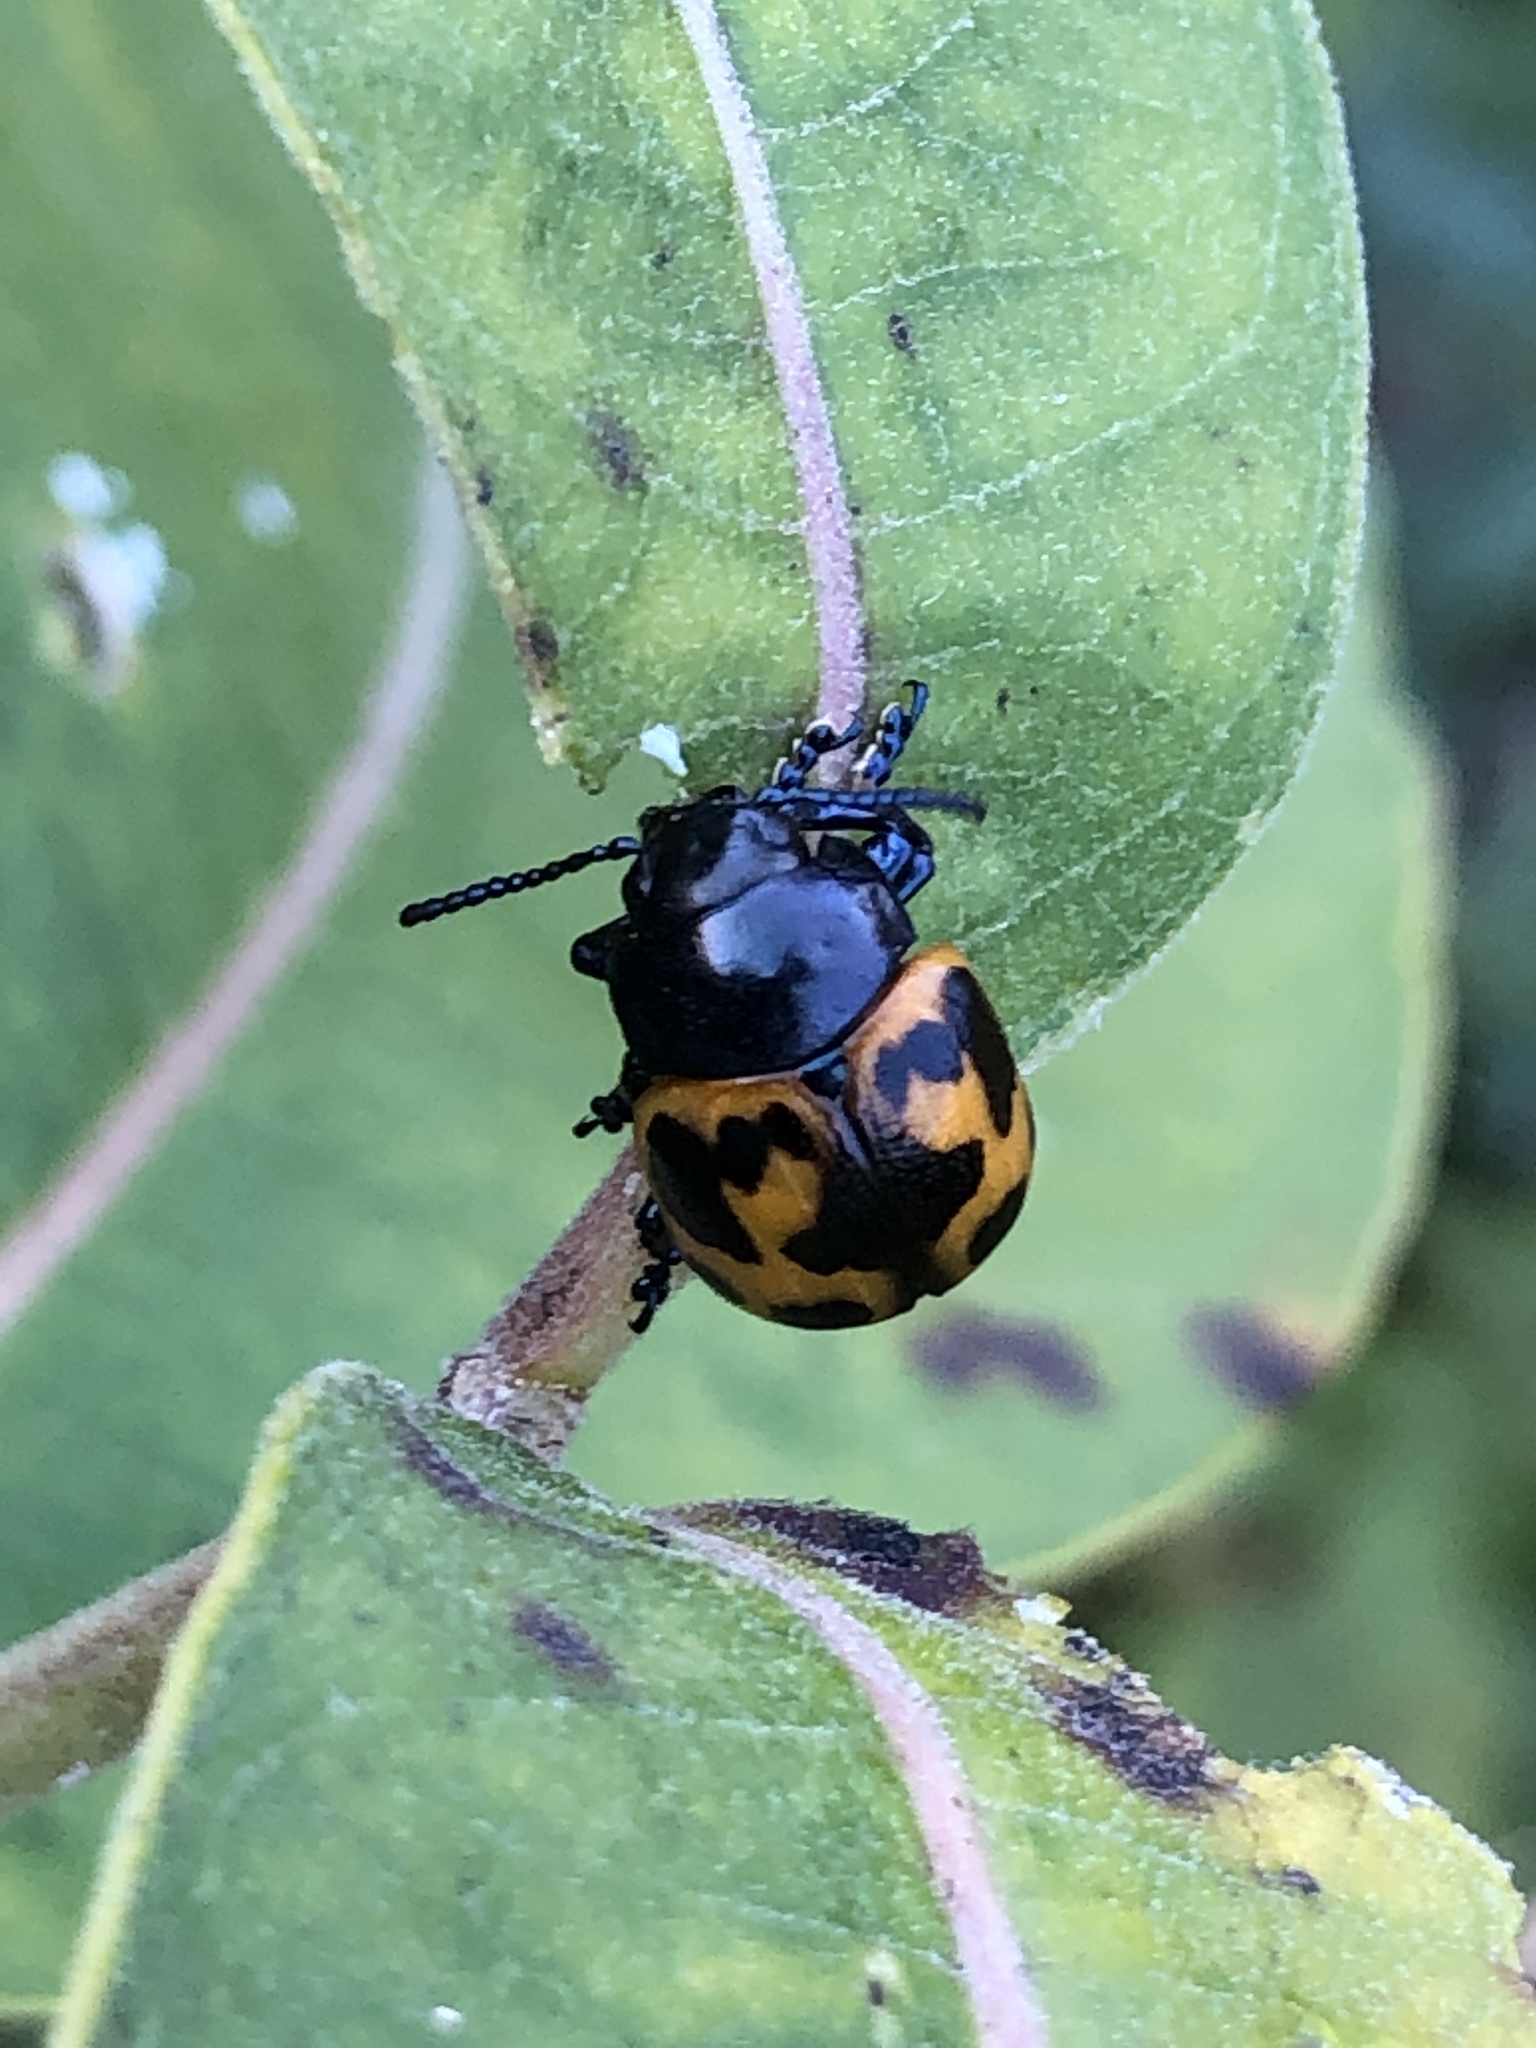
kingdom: Animalia
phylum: Arthropoda
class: Insecta
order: Coleoptera
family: Chrysomelidae
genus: Labidomera
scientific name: Labidomera clivicollis
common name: Swamp milkweed leaf beetle
